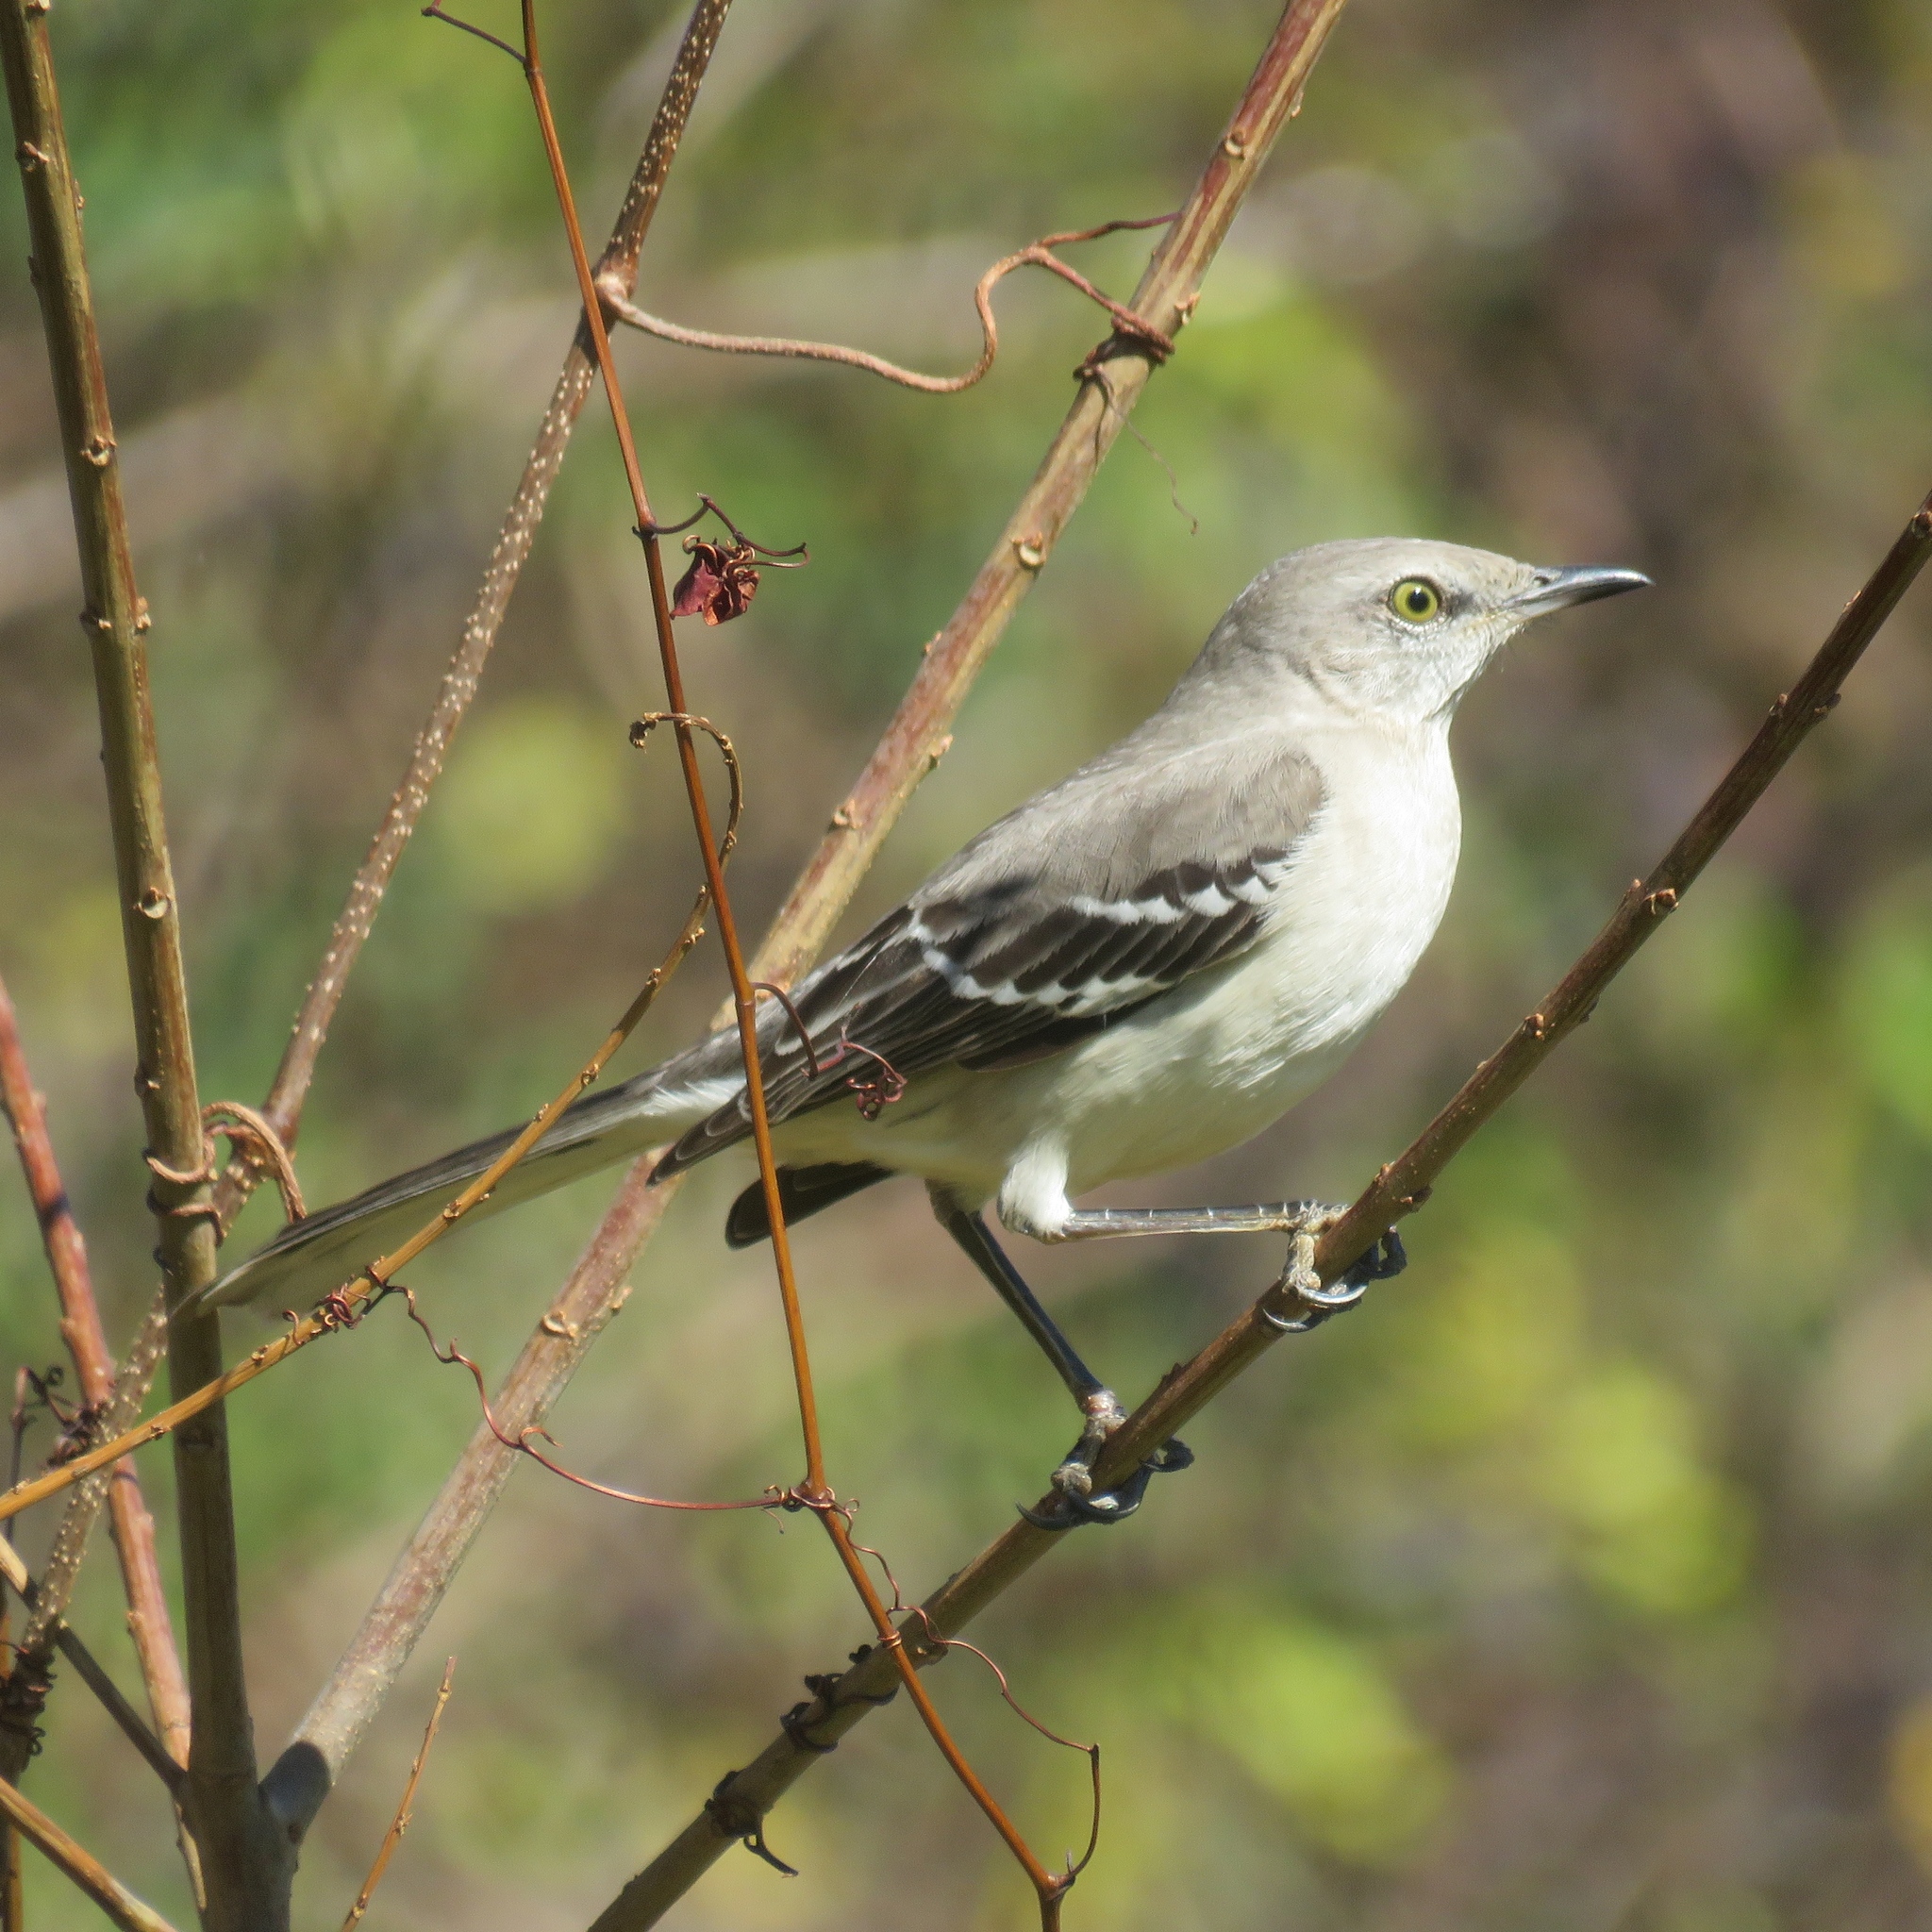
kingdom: Animalia
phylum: Chordata
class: Aves
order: Passeriformes
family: Mimidae
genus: Mimus
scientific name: Mimus polyglottos
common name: Northern mockingbird
